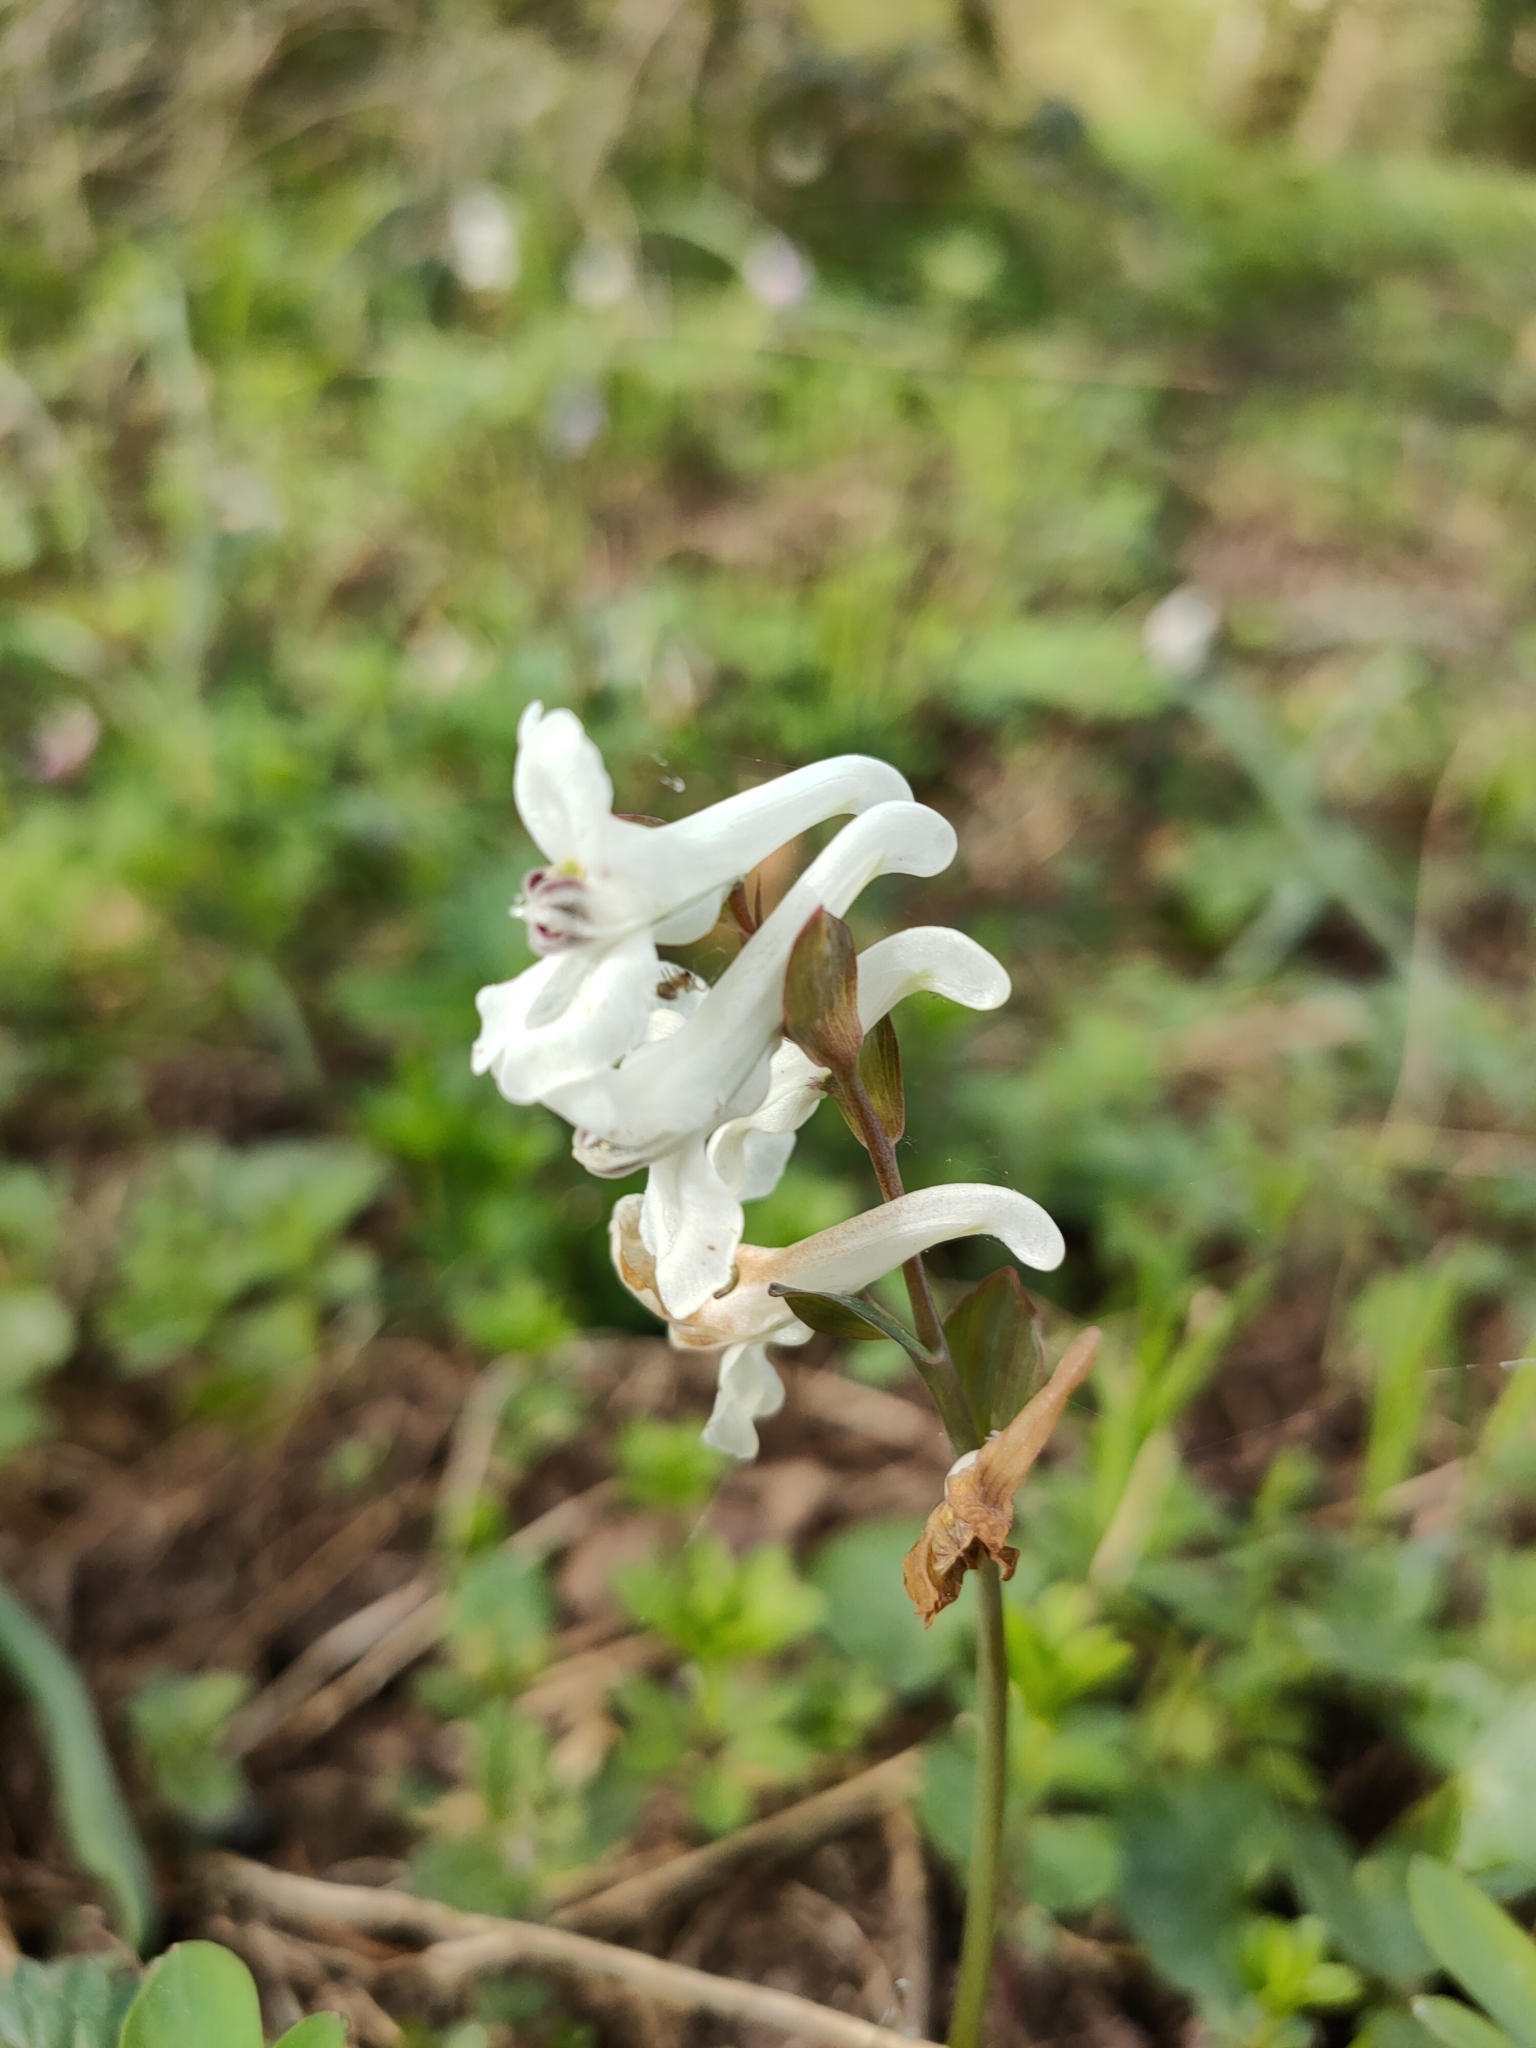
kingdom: Plantae
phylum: Tracheophyta
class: Magnoliopsida
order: Ranunculales
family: Papaveraceae
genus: Corydalis
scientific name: Corydalis cava
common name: Hollowroot
